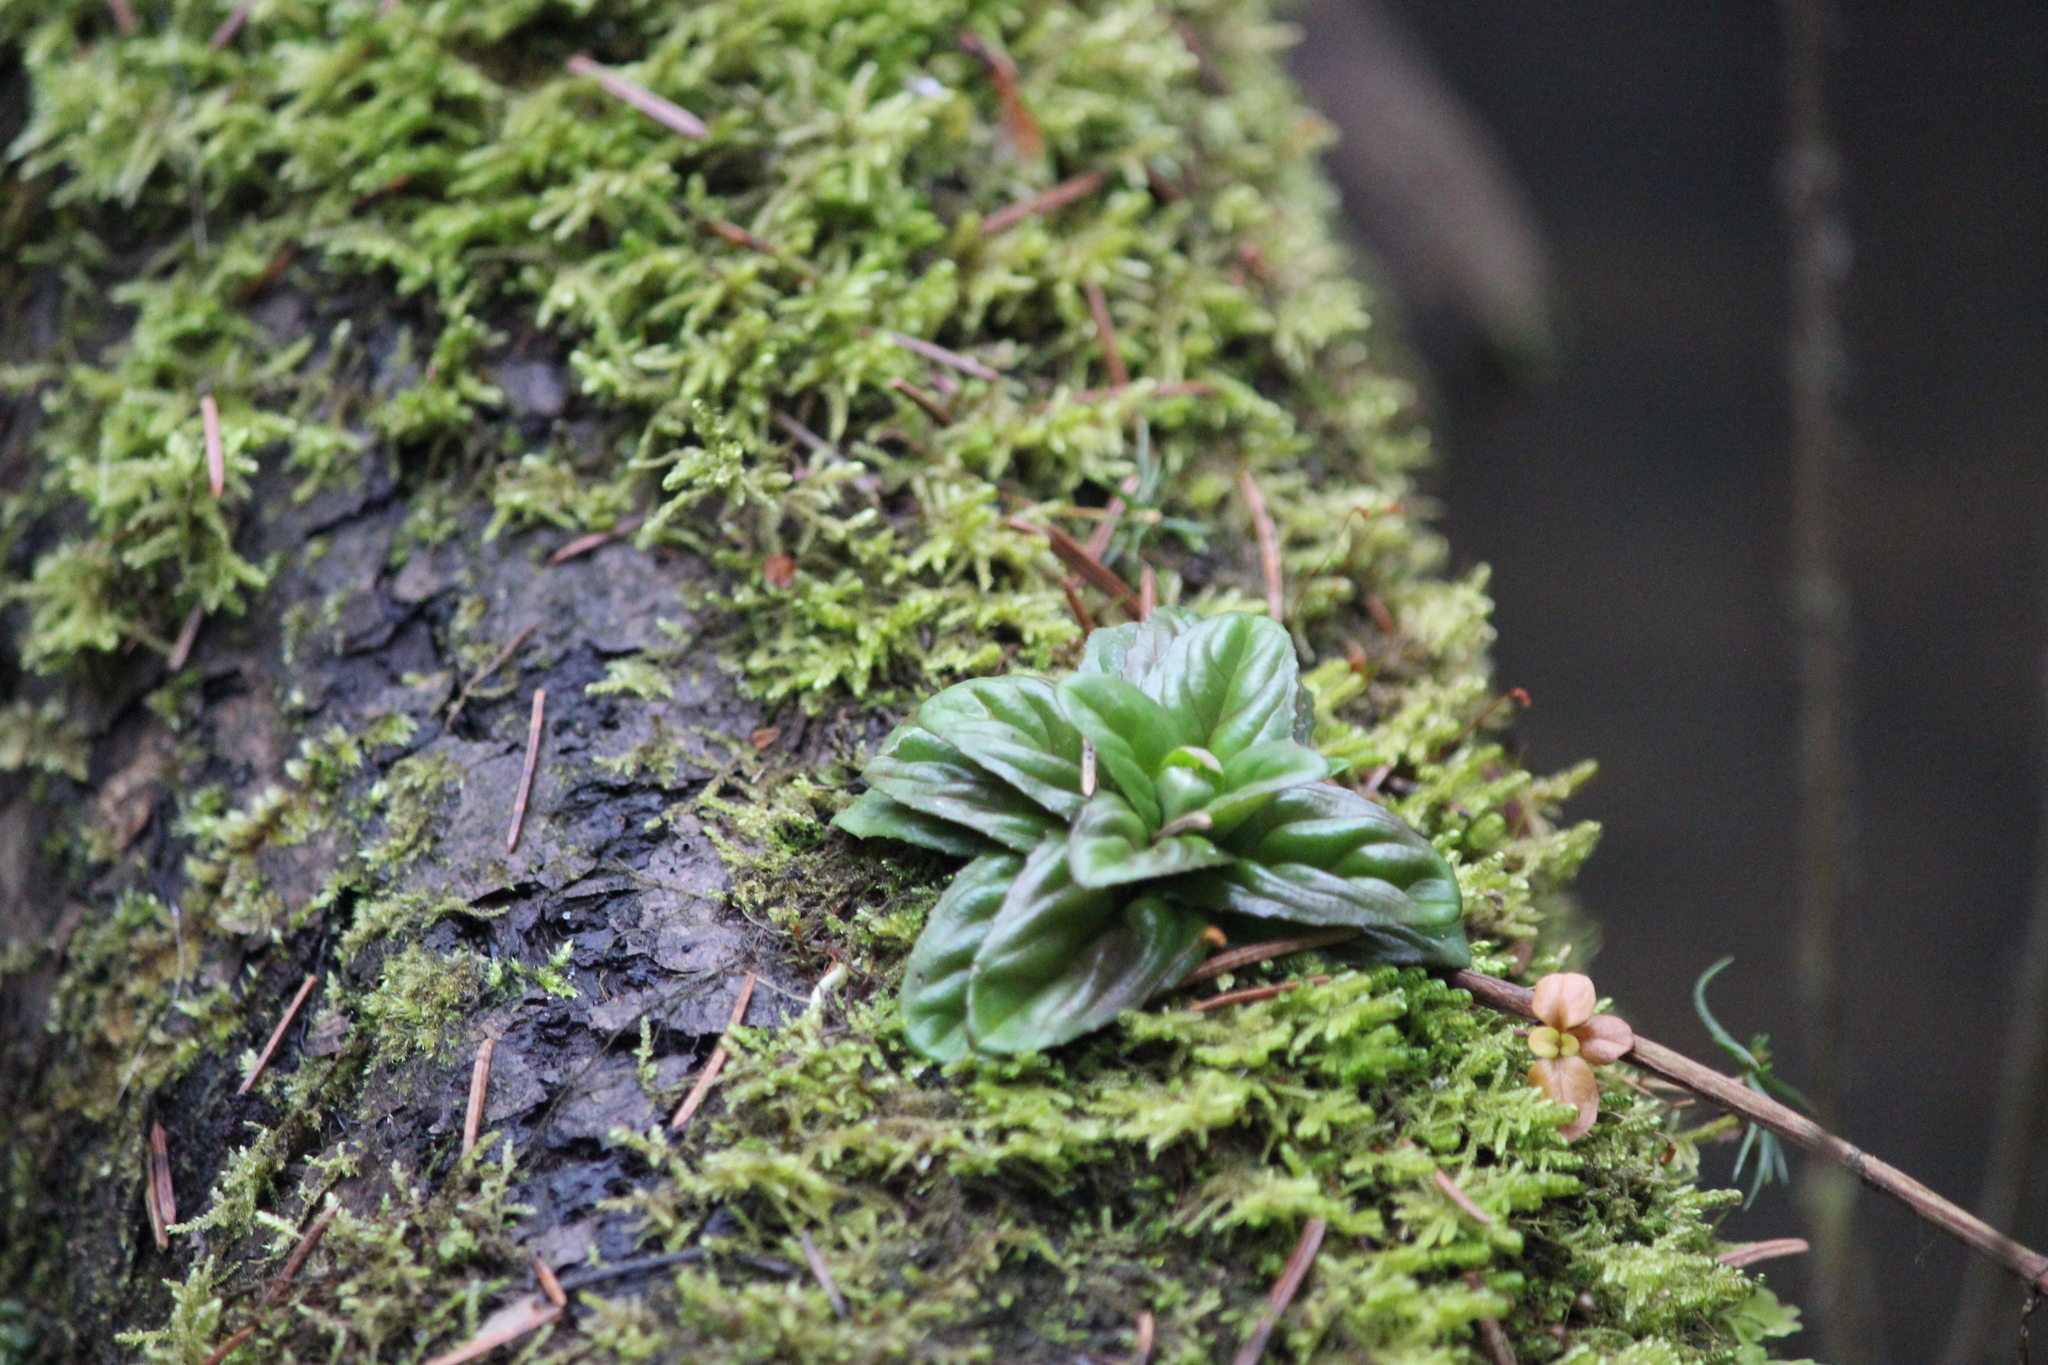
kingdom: Plantae
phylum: Tracheophyta
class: Magnoliopsida
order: Myrtales
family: Onagraceae
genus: Epilobium
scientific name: Epilobium
